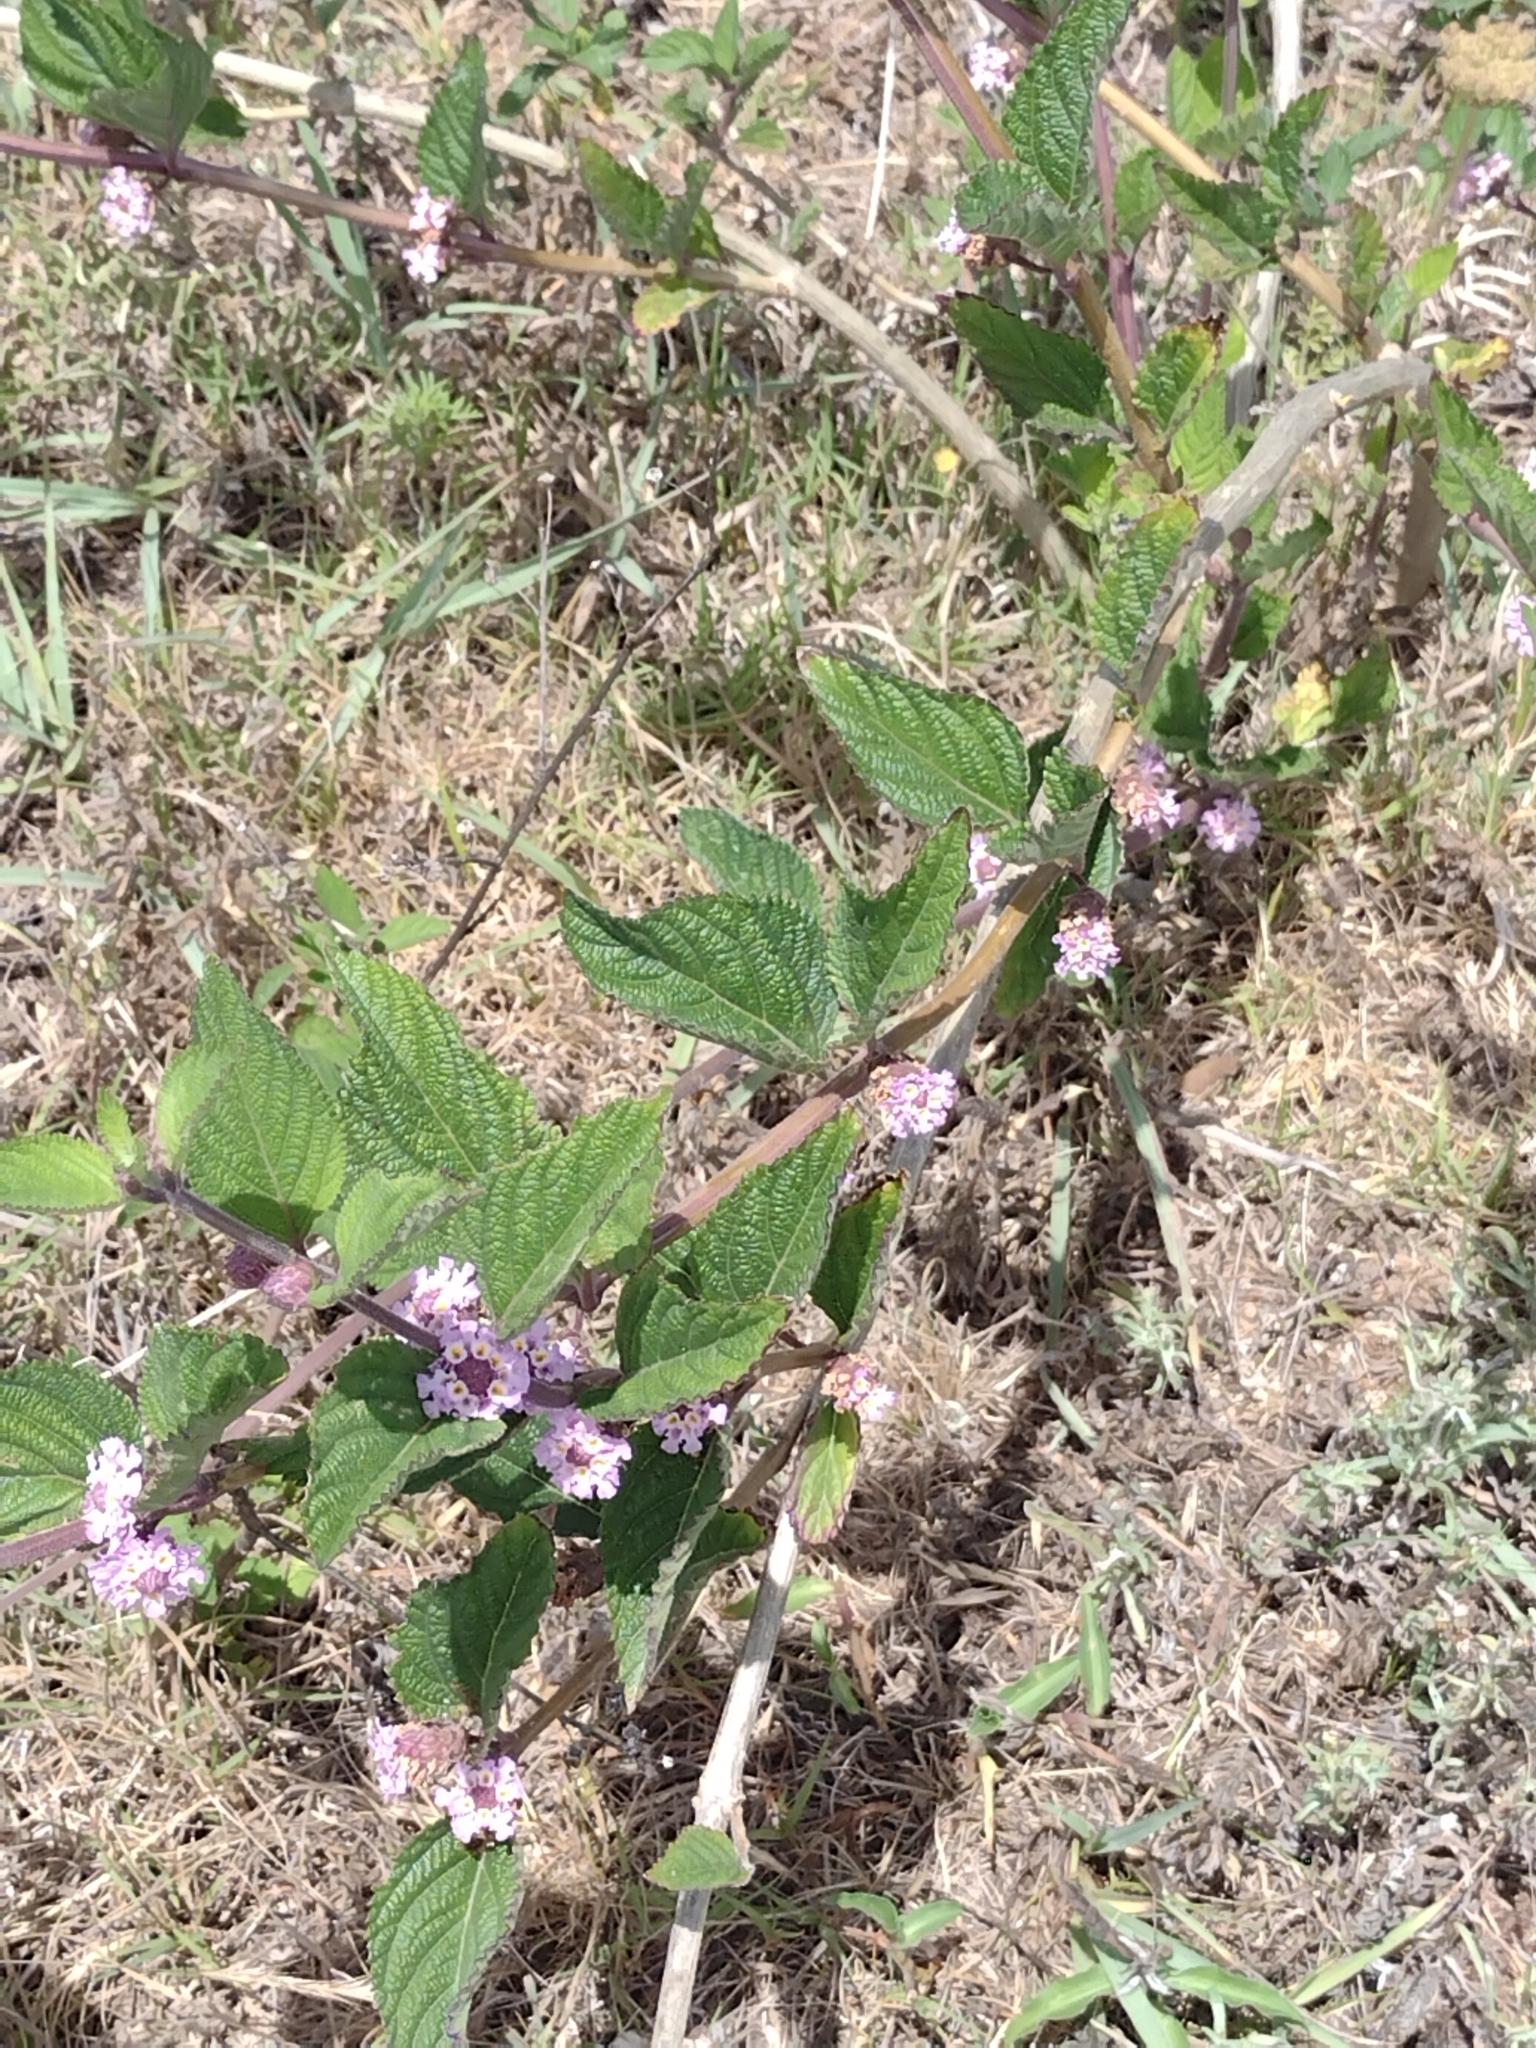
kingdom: Plantae
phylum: Tracheophyta
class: Magnoliopsida
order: Lamiales
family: Verbenaceae
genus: Lippia
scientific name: Lippia alba
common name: Bushy matgrass
